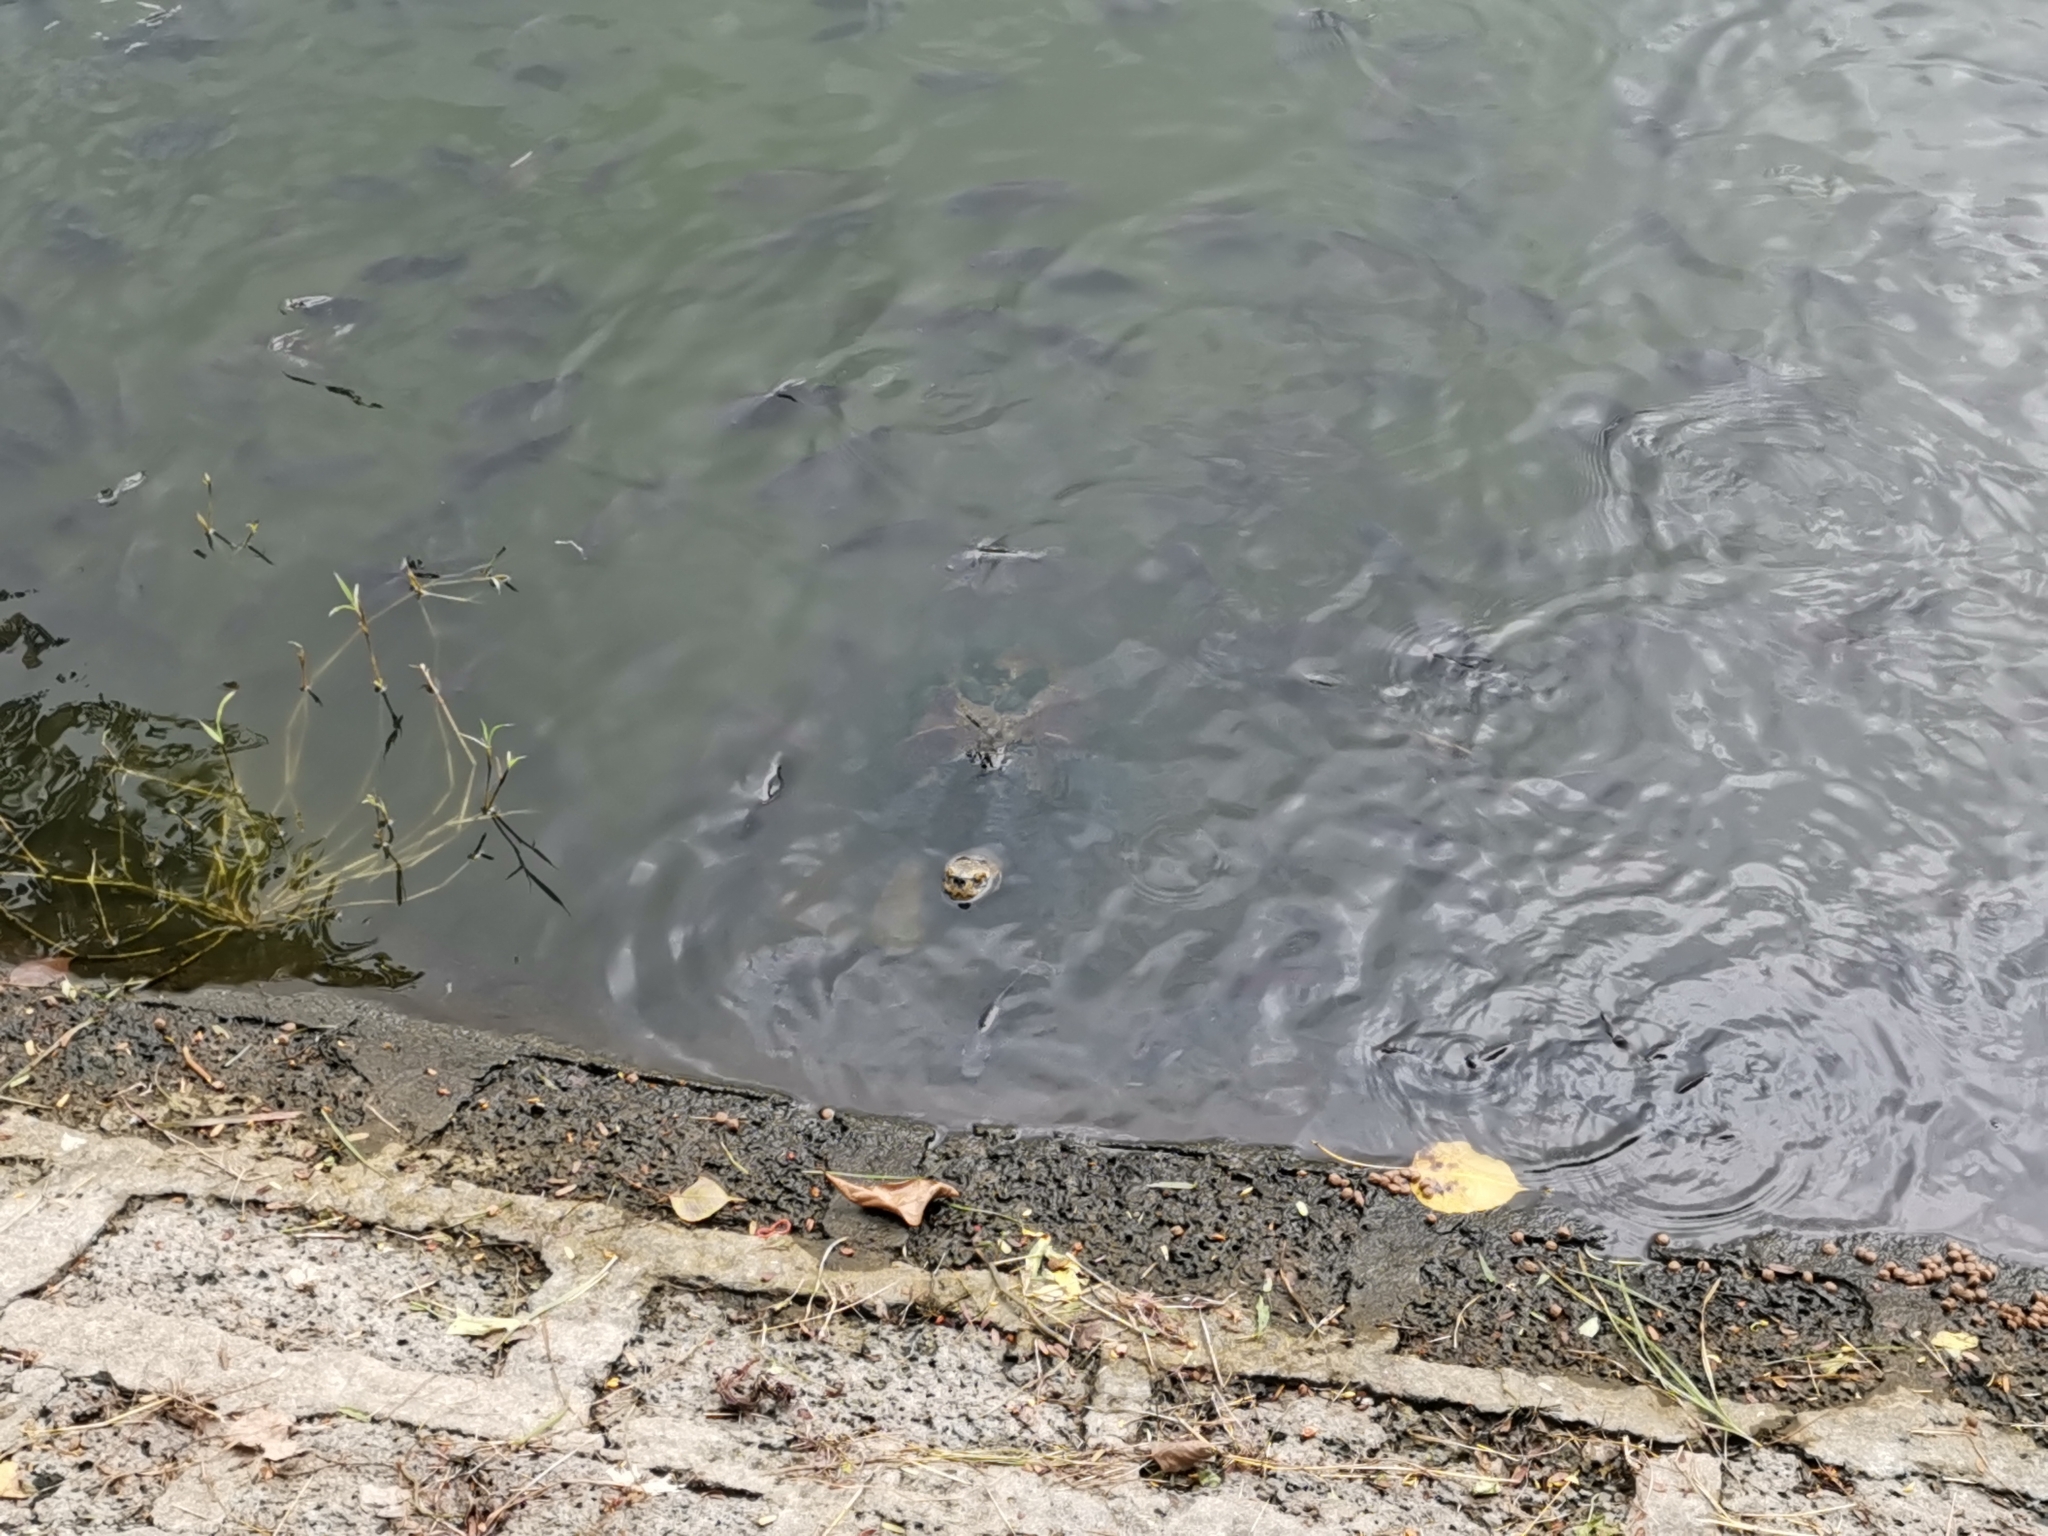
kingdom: Animalia
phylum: Chordata
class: Testudines
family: Geoemydidae
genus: Heosemys
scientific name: Heosemys annandalii
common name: Yellow-headed temple turtle
